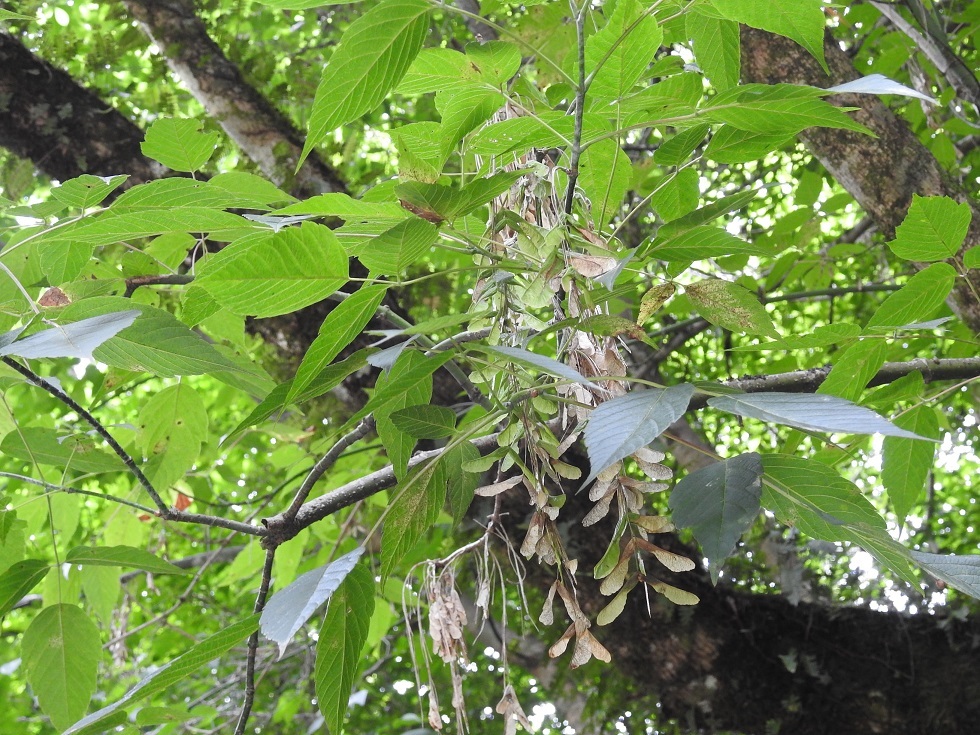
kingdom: Plantae
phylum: Tracheophyta
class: Magnoliopsida
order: Sapindales
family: Sapindaceae
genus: Acer
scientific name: Acer negundo
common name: Ashleaf maple
